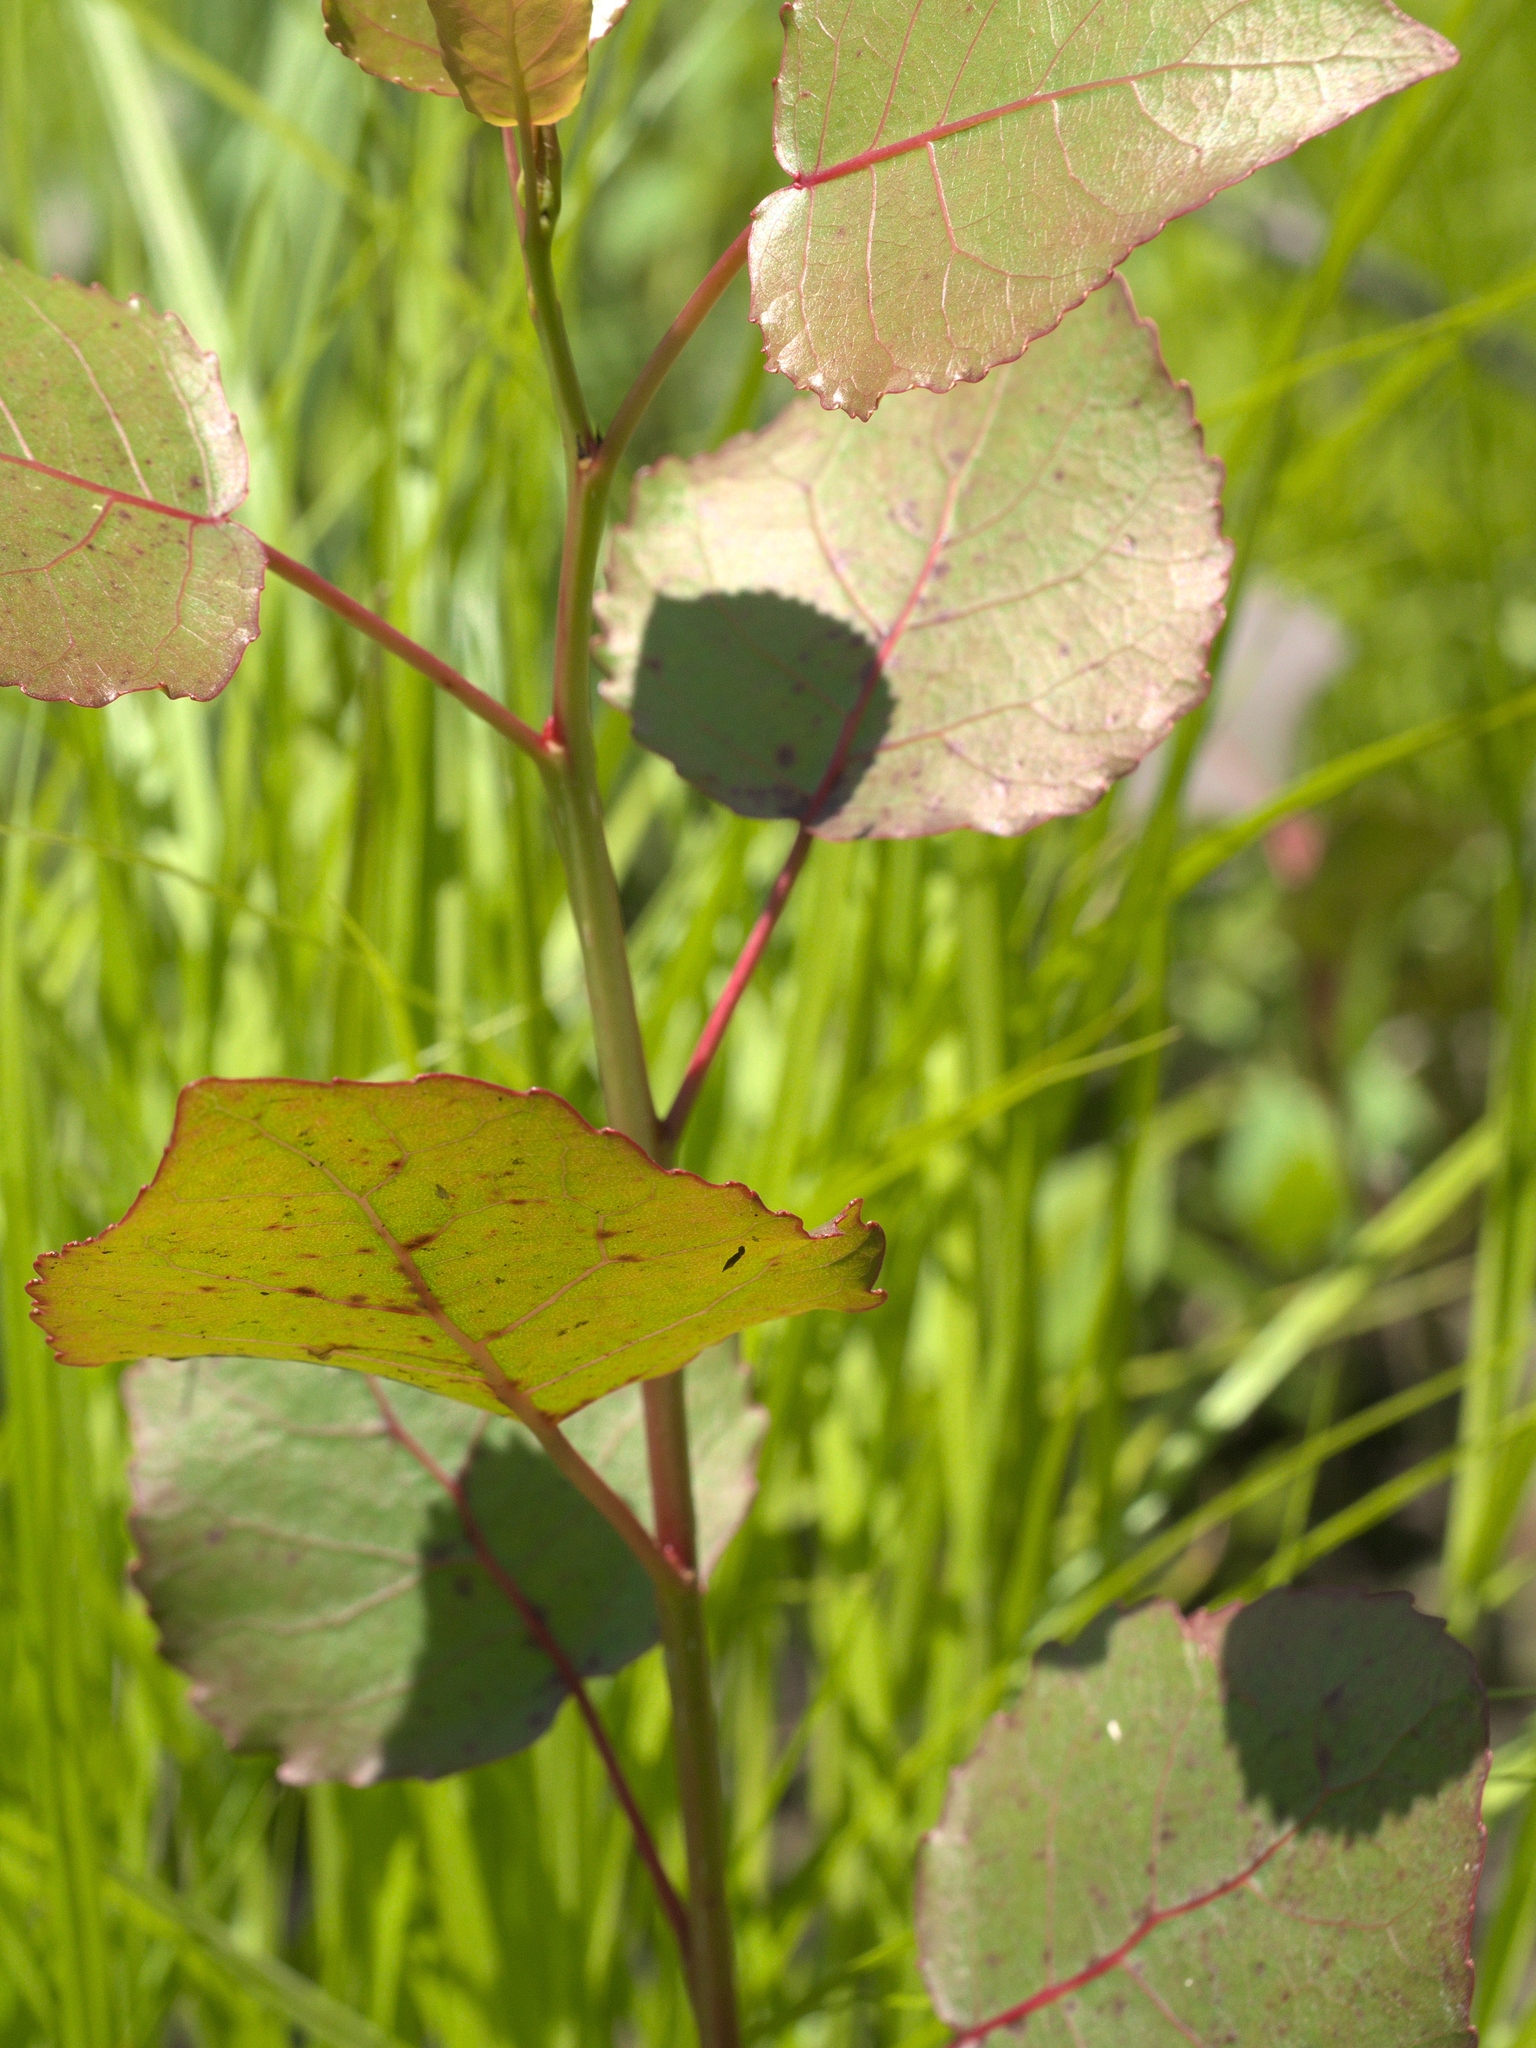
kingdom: Plantae
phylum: Tracheophyta
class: Magnoliopsida
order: Malpighiales
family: Salicaceae
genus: Populus
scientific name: Populus deltoides
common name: Eastern cottonwood
